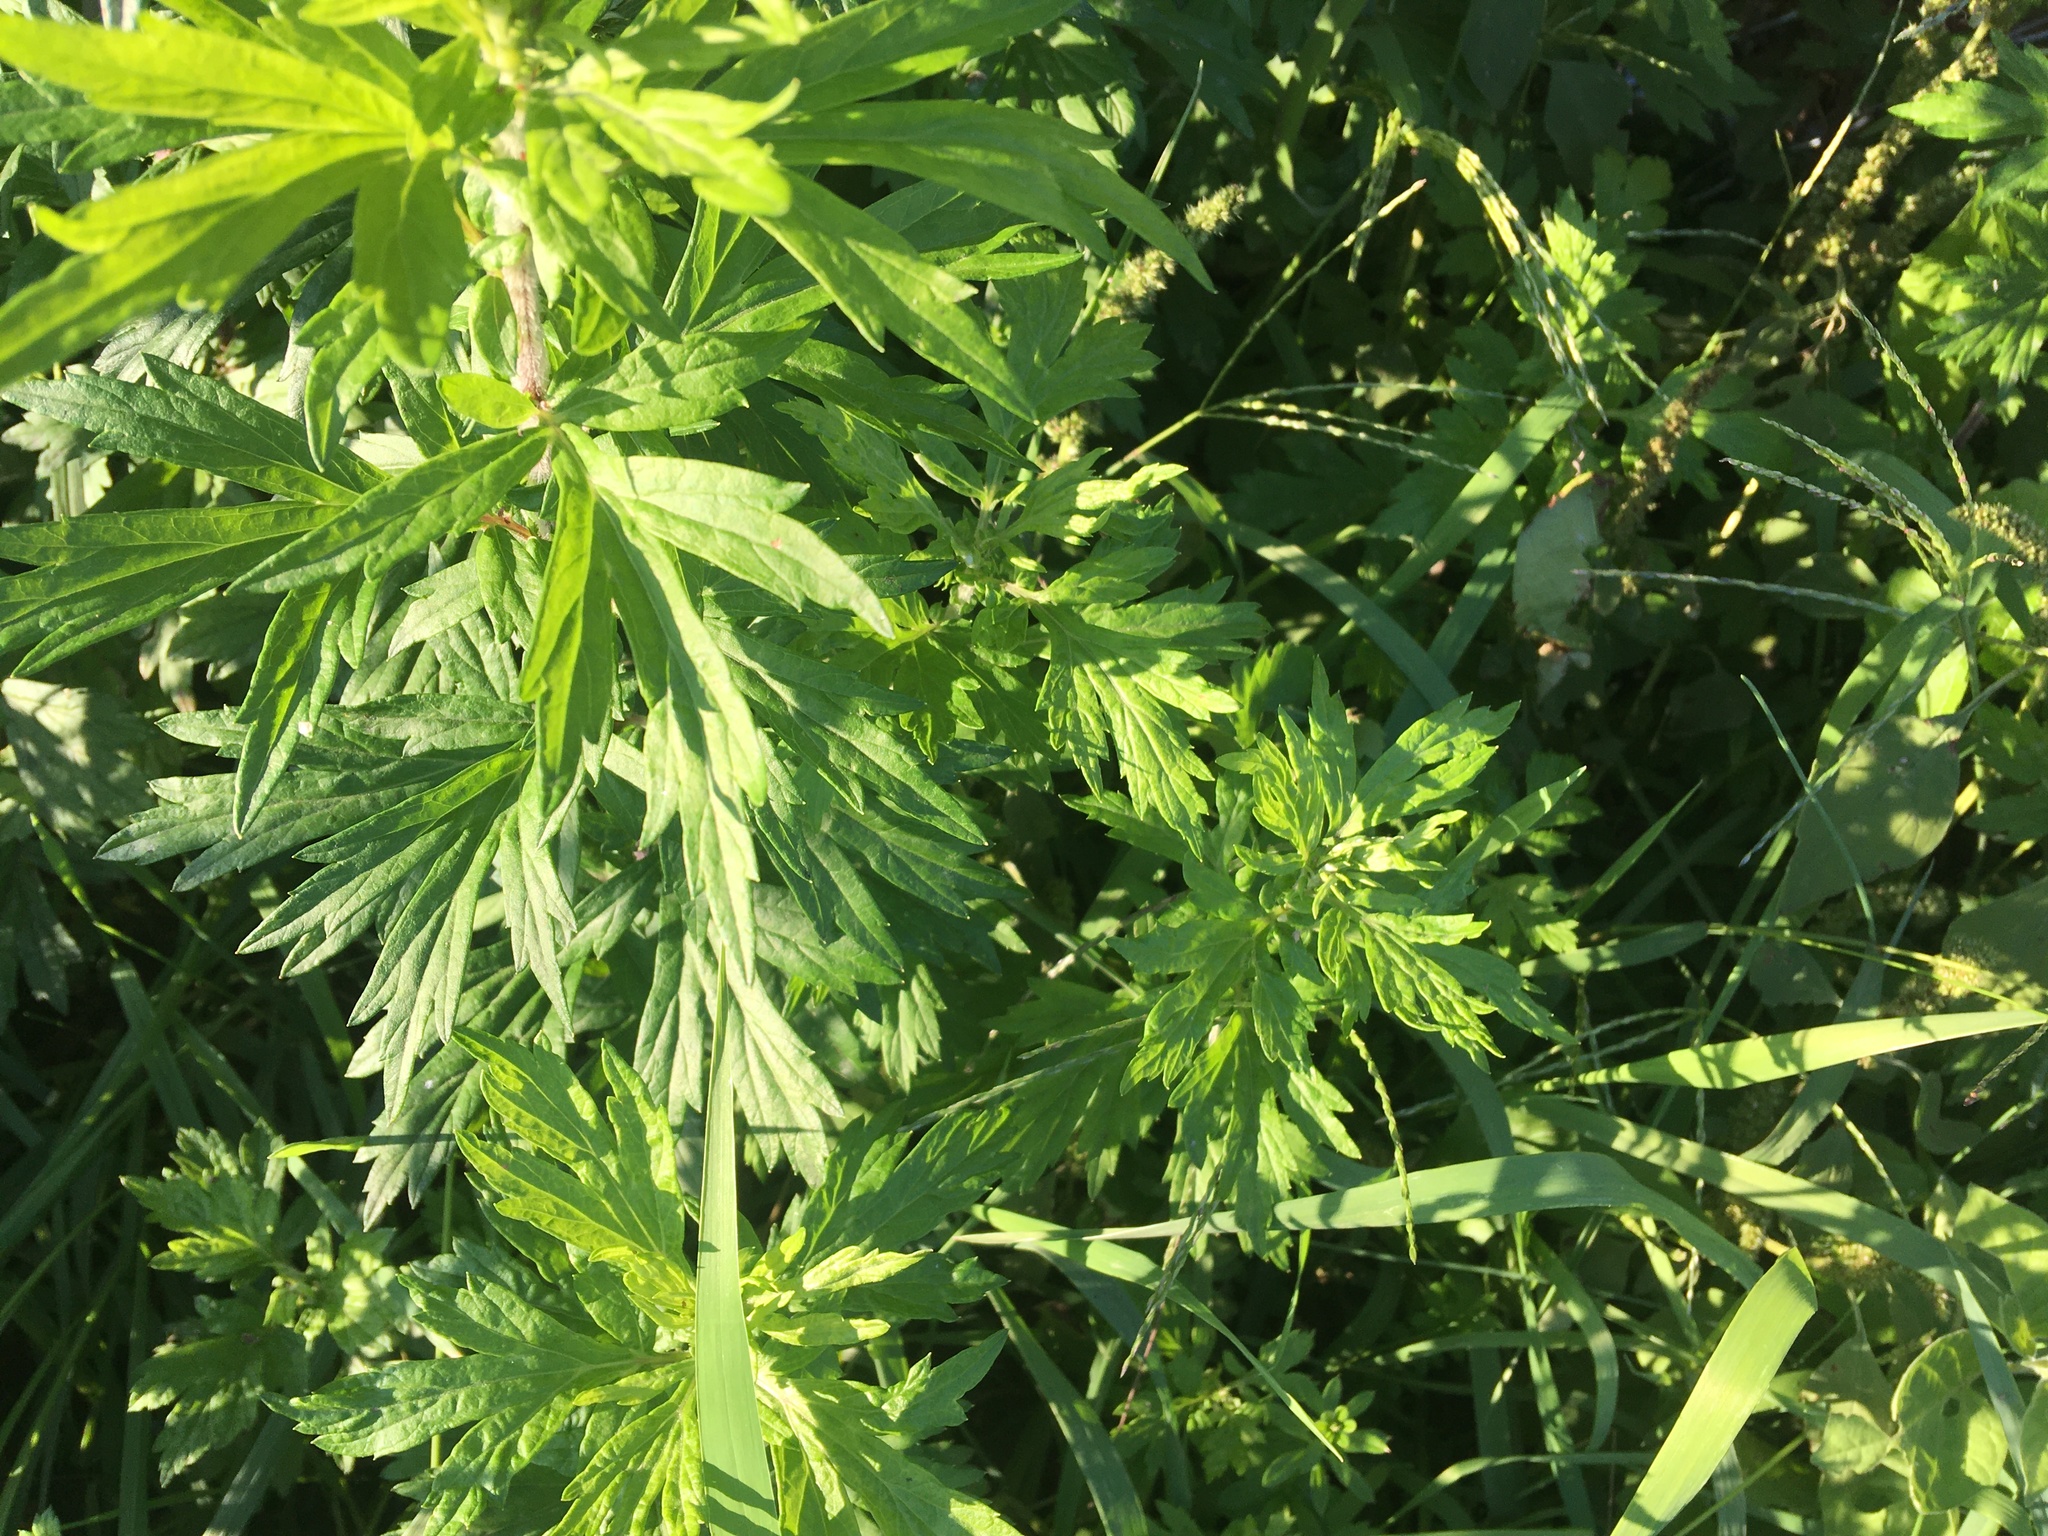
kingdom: Plantae
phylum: Tracheophyta
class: Magnoliopsida
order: Asterales
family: Asteraceae
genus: Artemisia
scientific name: Artemisia vulgaris
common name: Mugwort
